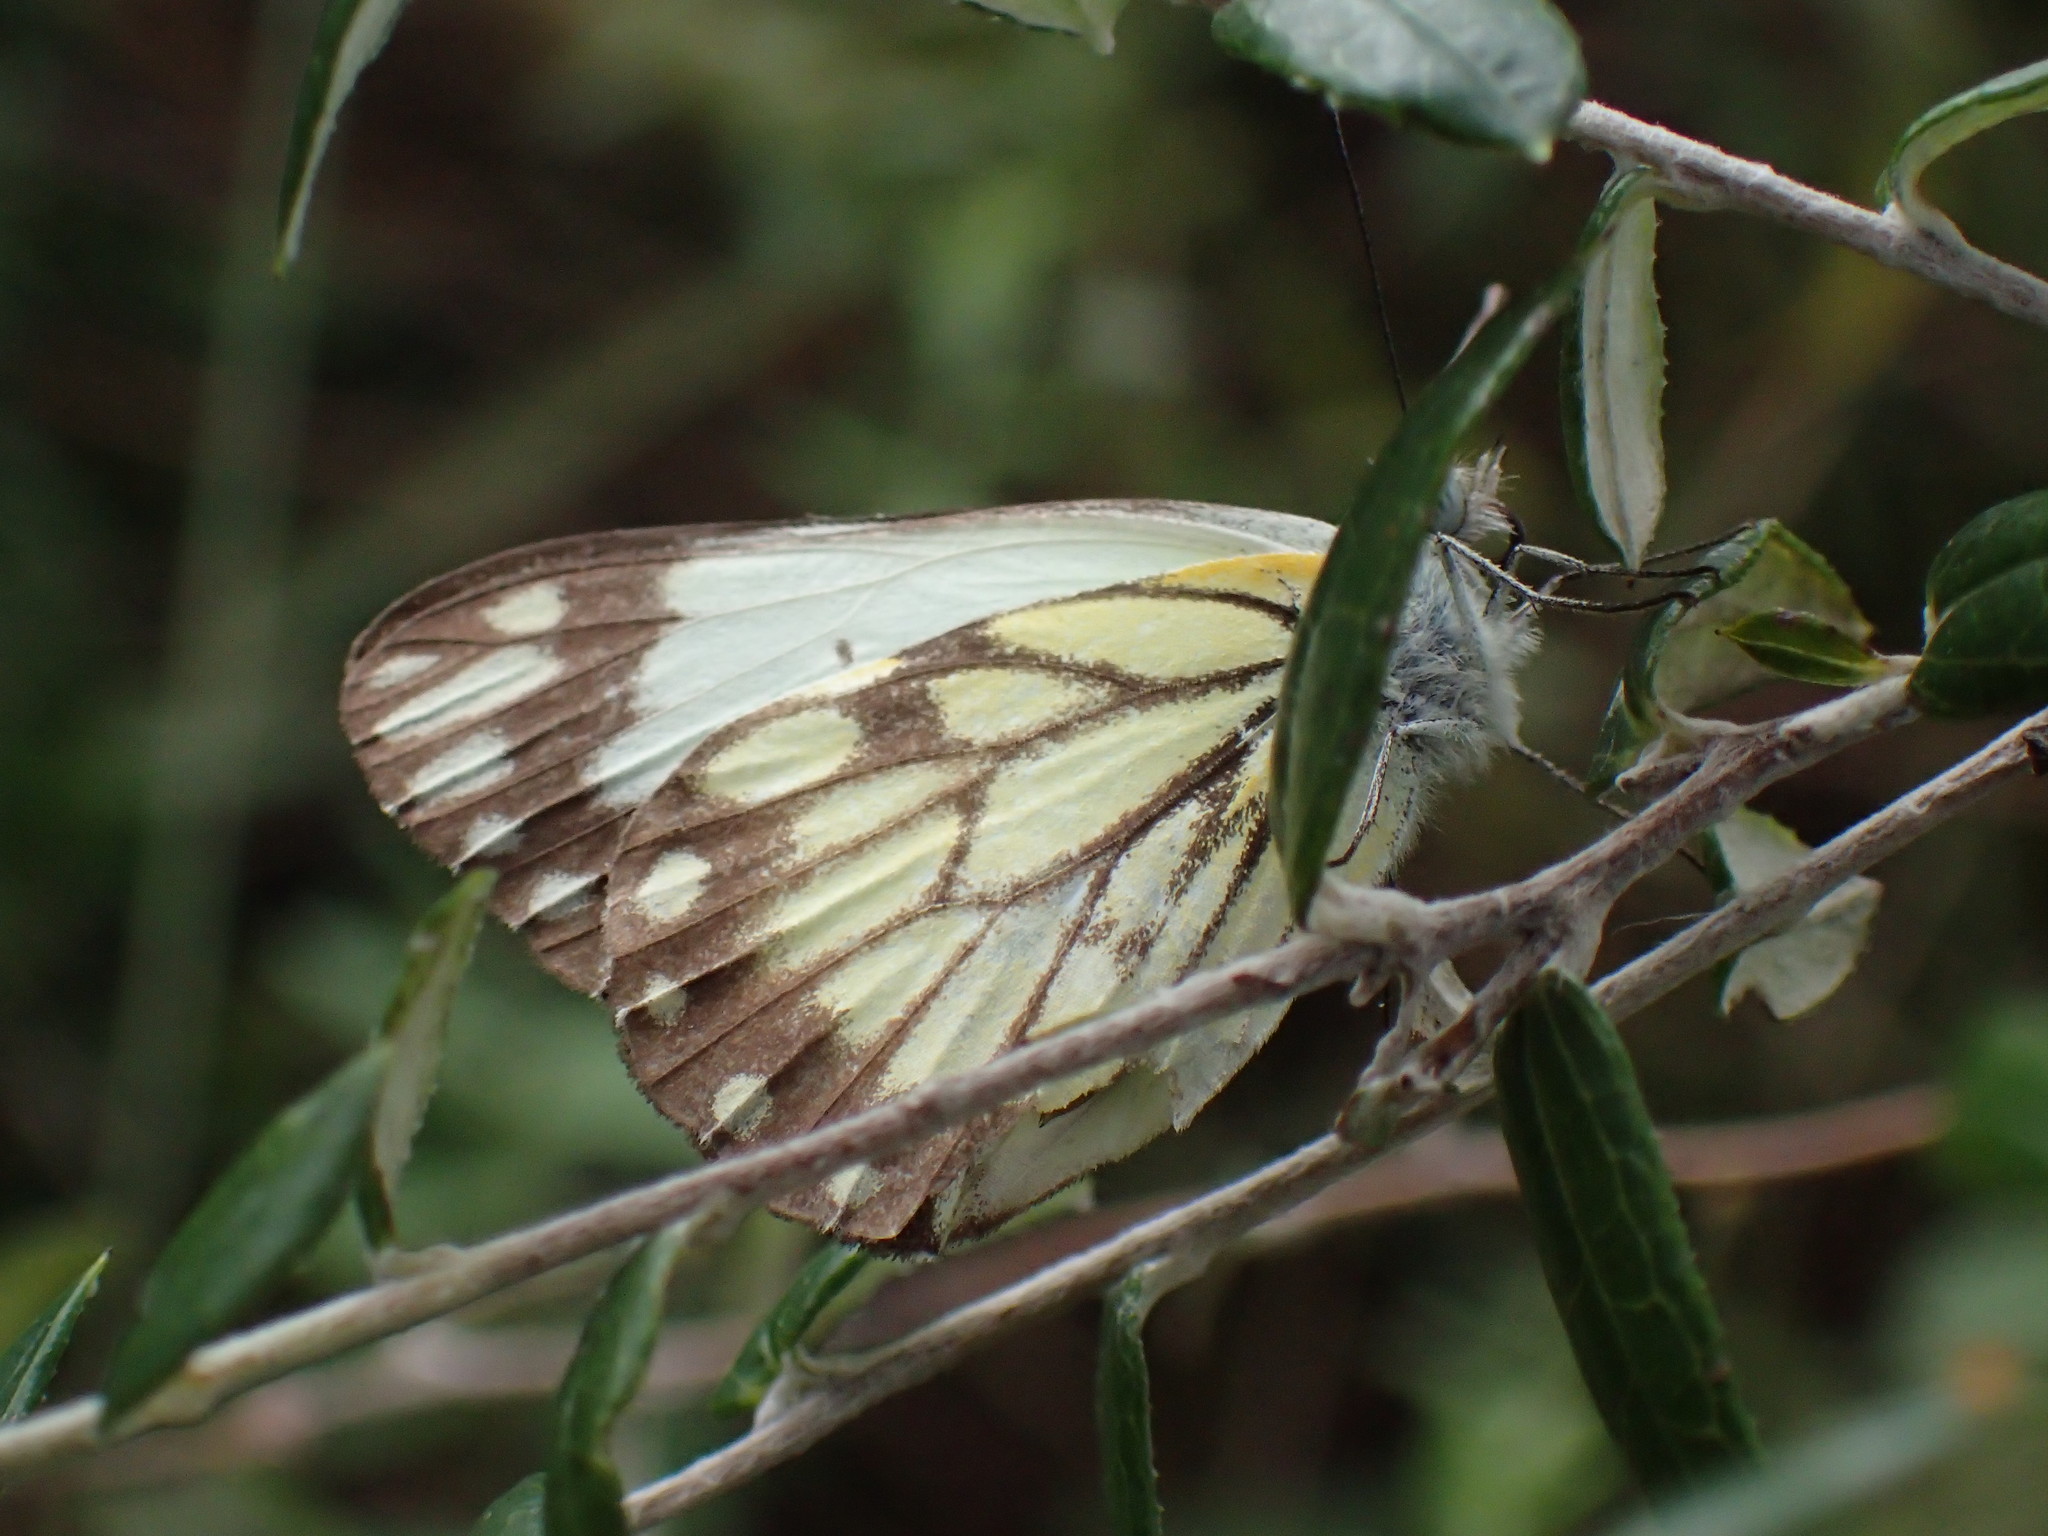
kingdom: Animalia
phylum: Arthropoda
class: Insecta
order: Lepidoptera
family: Pieridae
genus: Belenois
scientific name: Belenois creona
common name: African caper white
